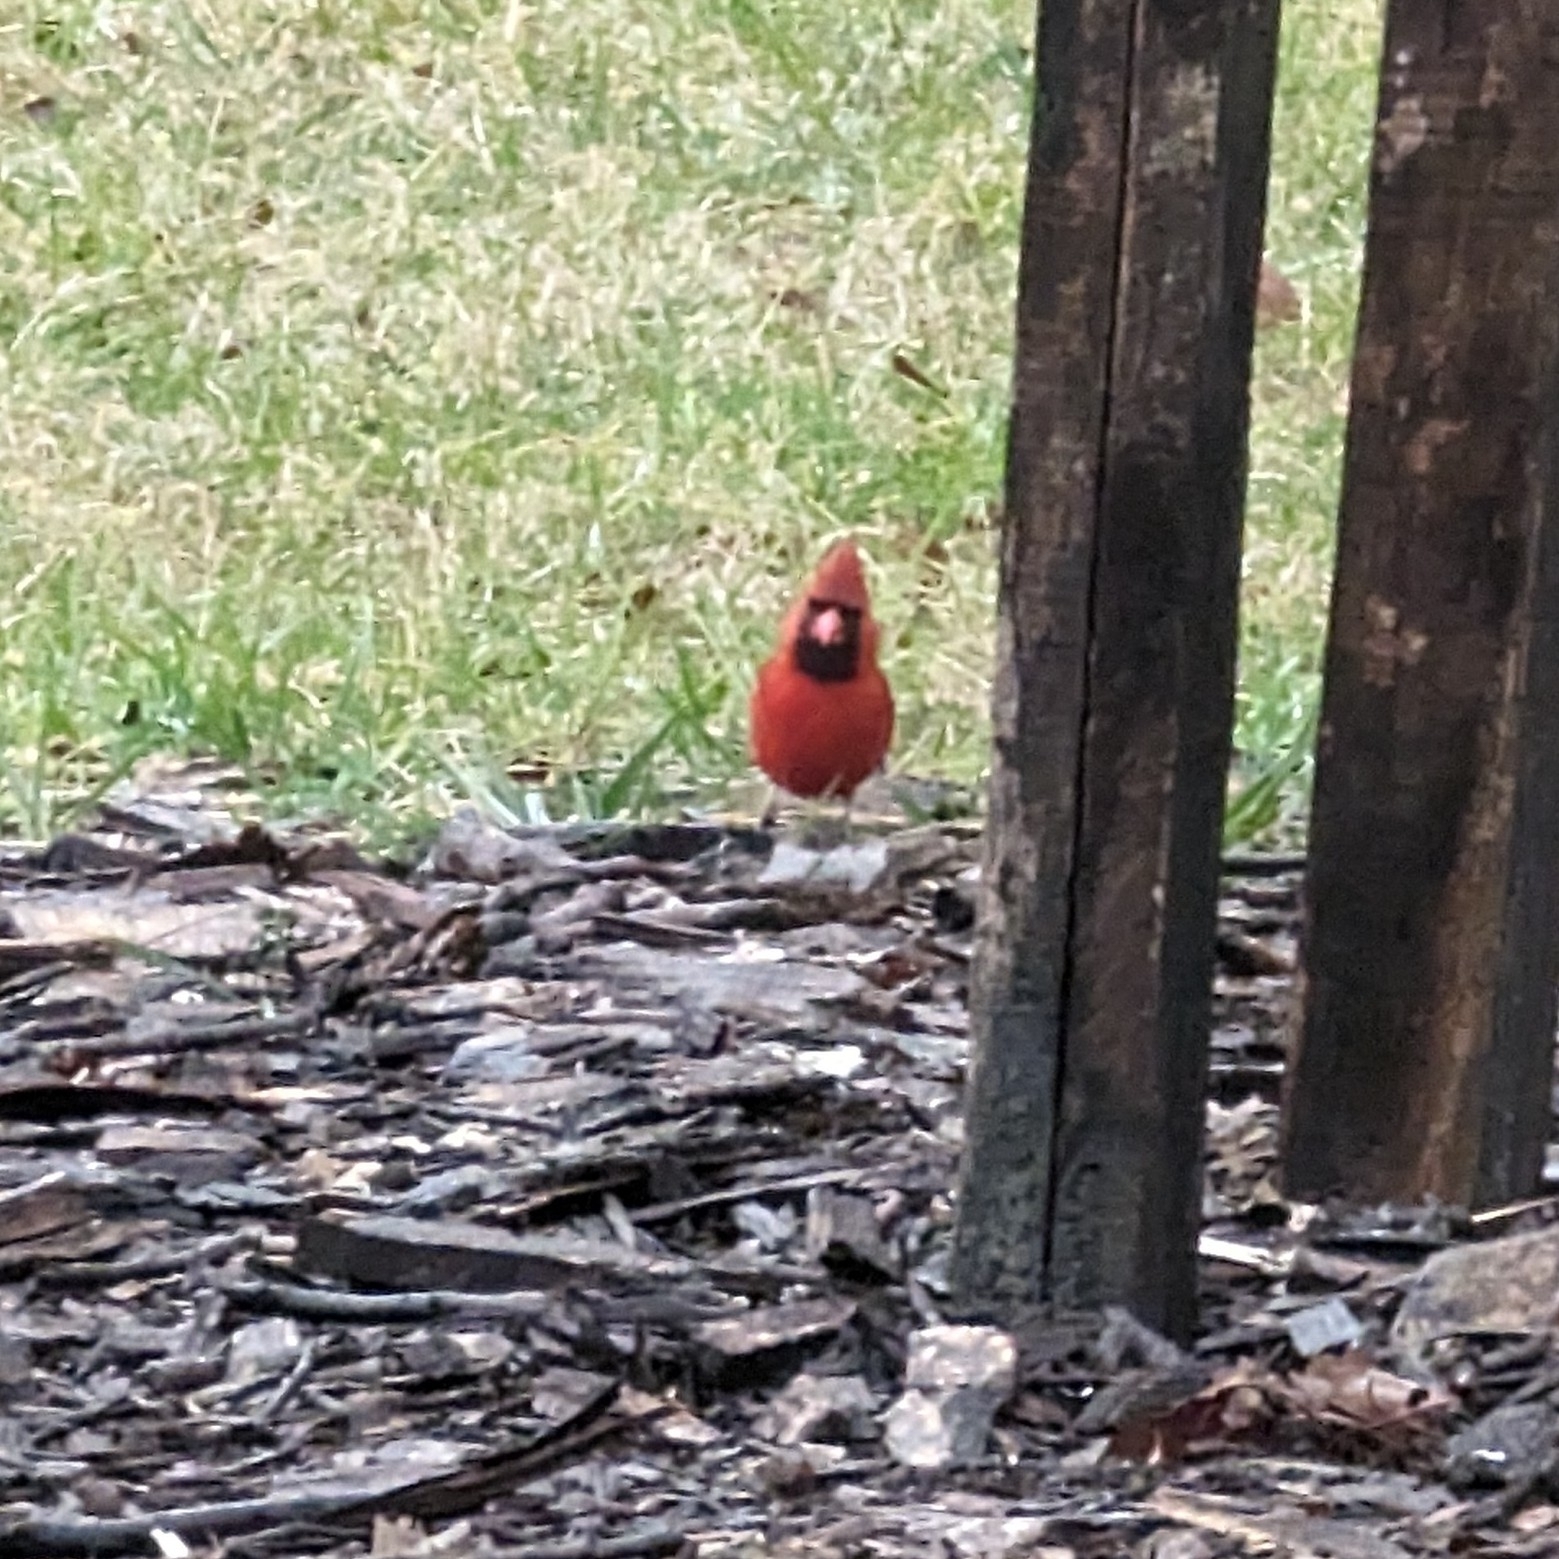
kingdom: Animalia
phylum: Chordata
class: Aves
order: Passeriformes
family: Cardinalidae
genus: Cardinalis
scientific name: Cardinalis cardinalis
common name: Northern cardinal
